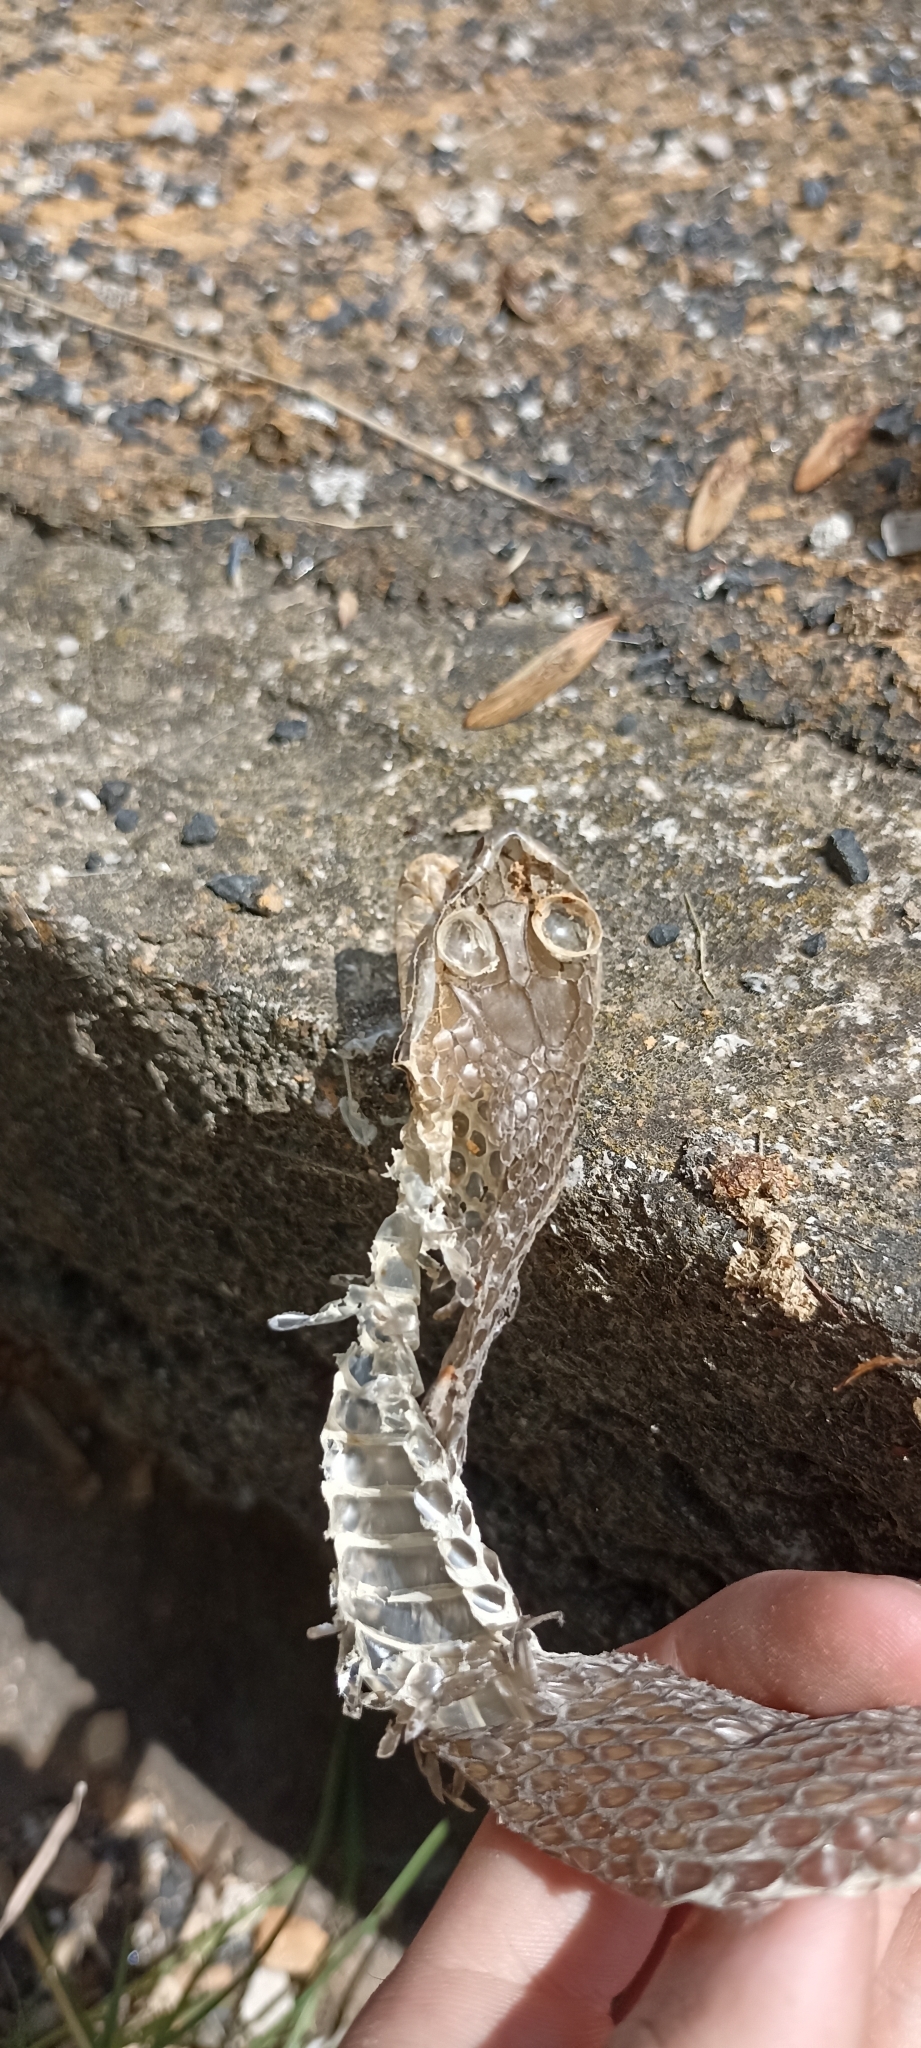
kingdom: Animalia
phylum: Chordata
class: Squamata
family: Psammophiidae
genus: Malpolon
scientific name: Malpolon monspessulanus
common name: Montpellier snake
